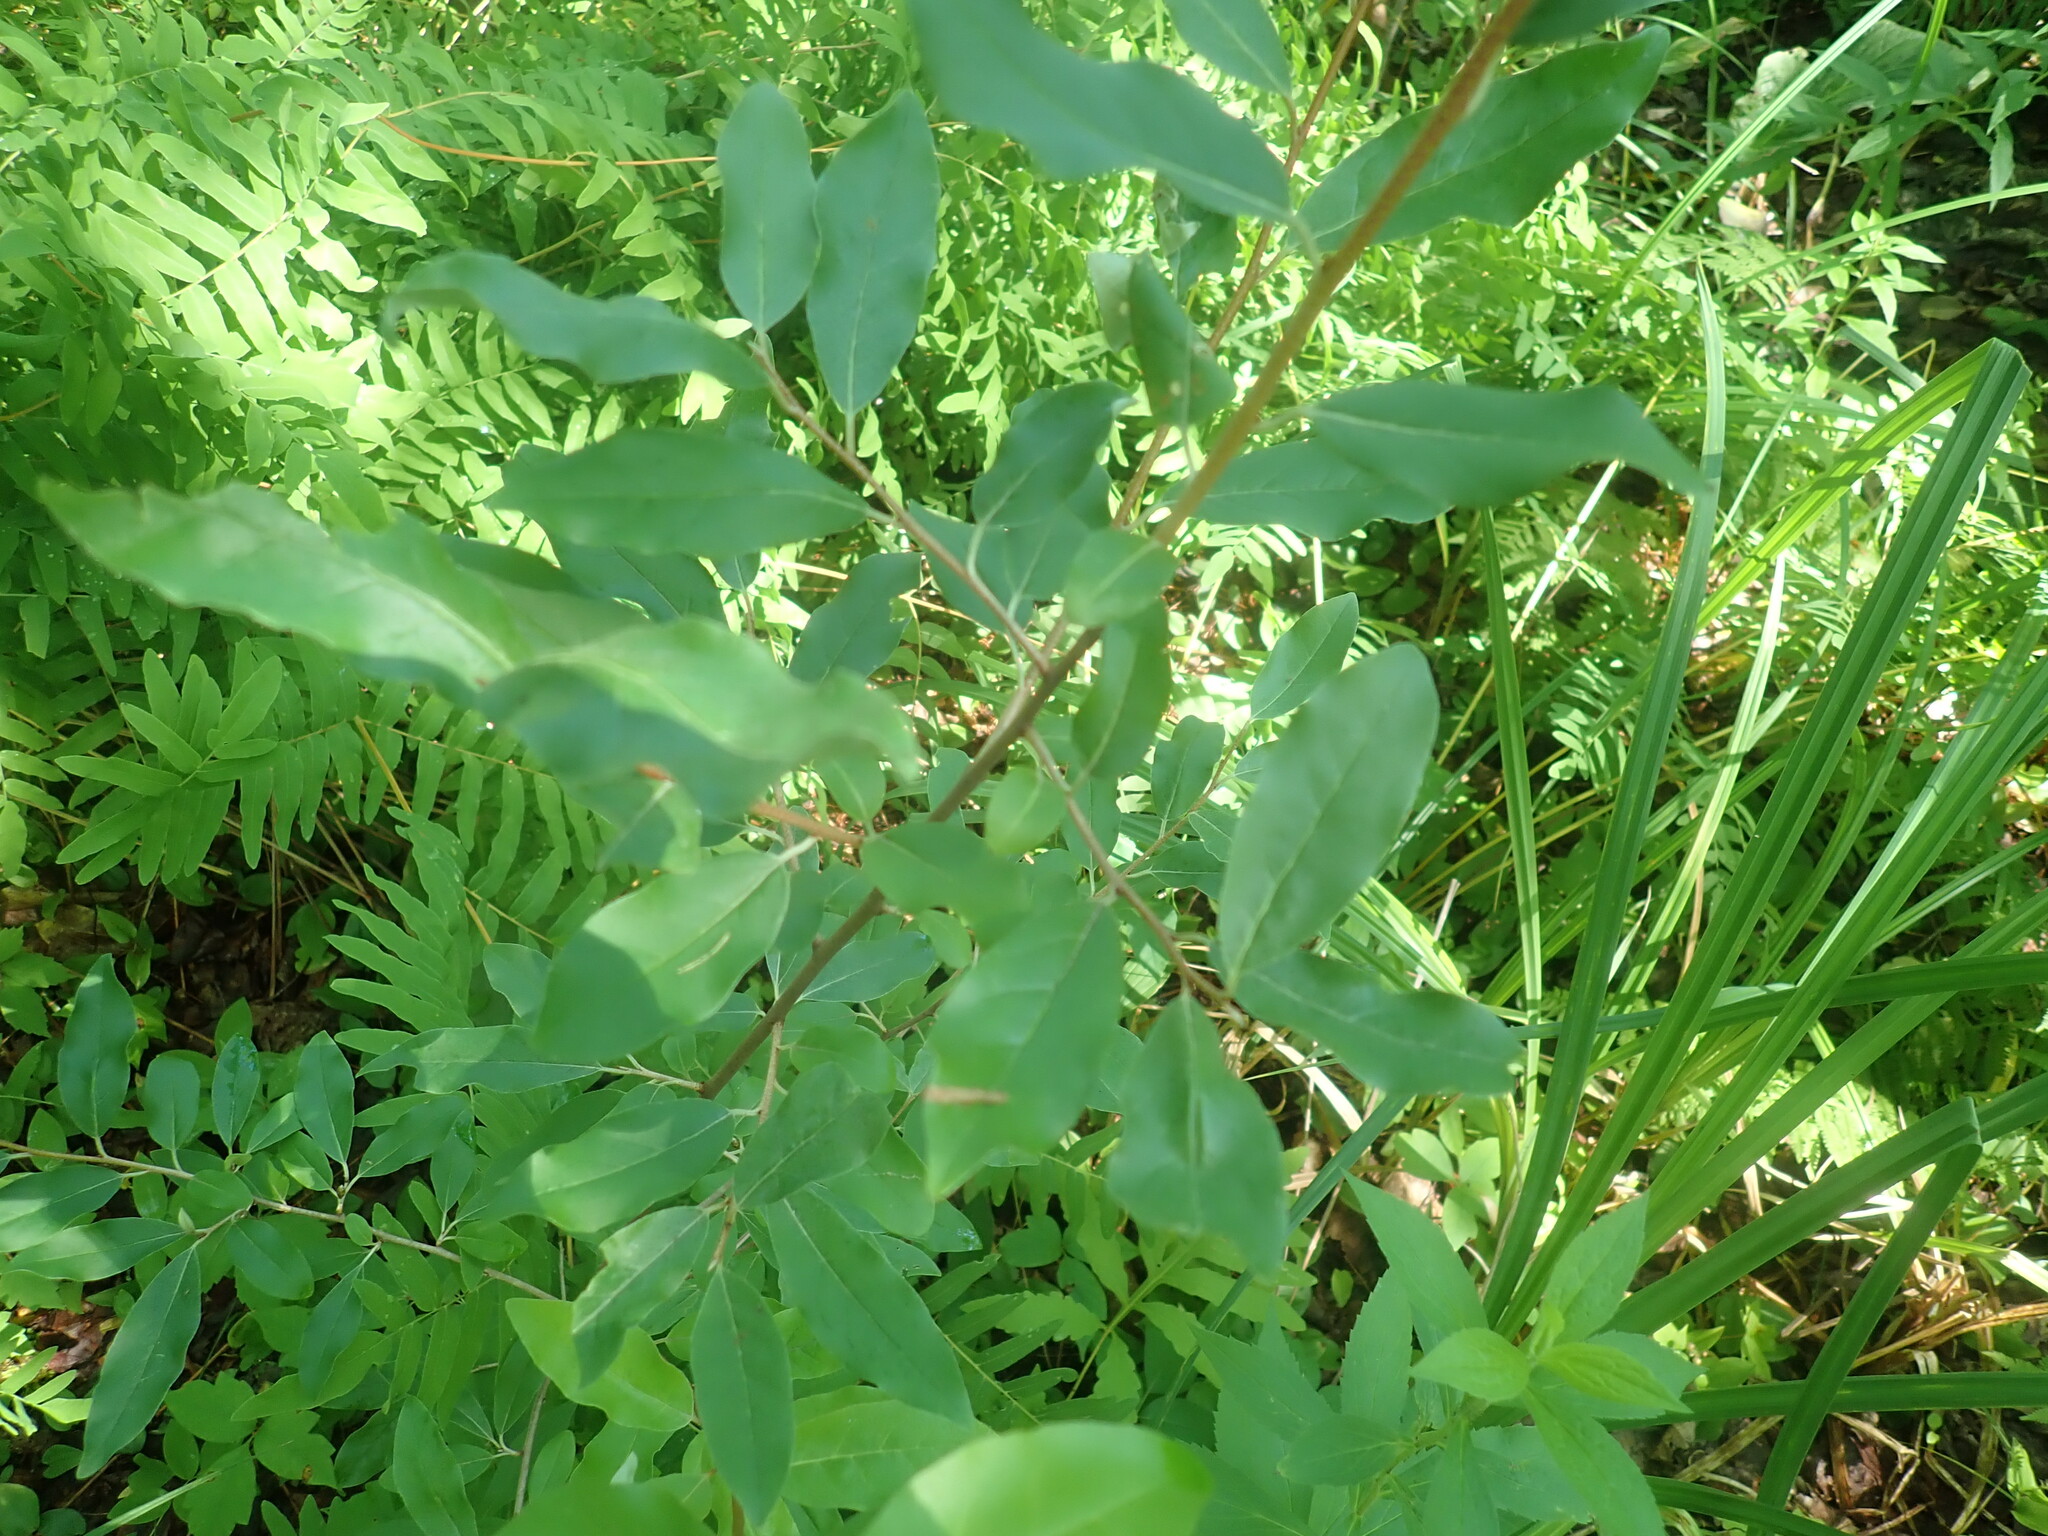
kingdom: Plantae
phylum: Tracheophyta
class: Magnoliopsida
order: Rosales
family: Elaeagnaceae
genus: Elaeagnus
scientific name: Elaeagnus umbellata
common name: Autumn olive
